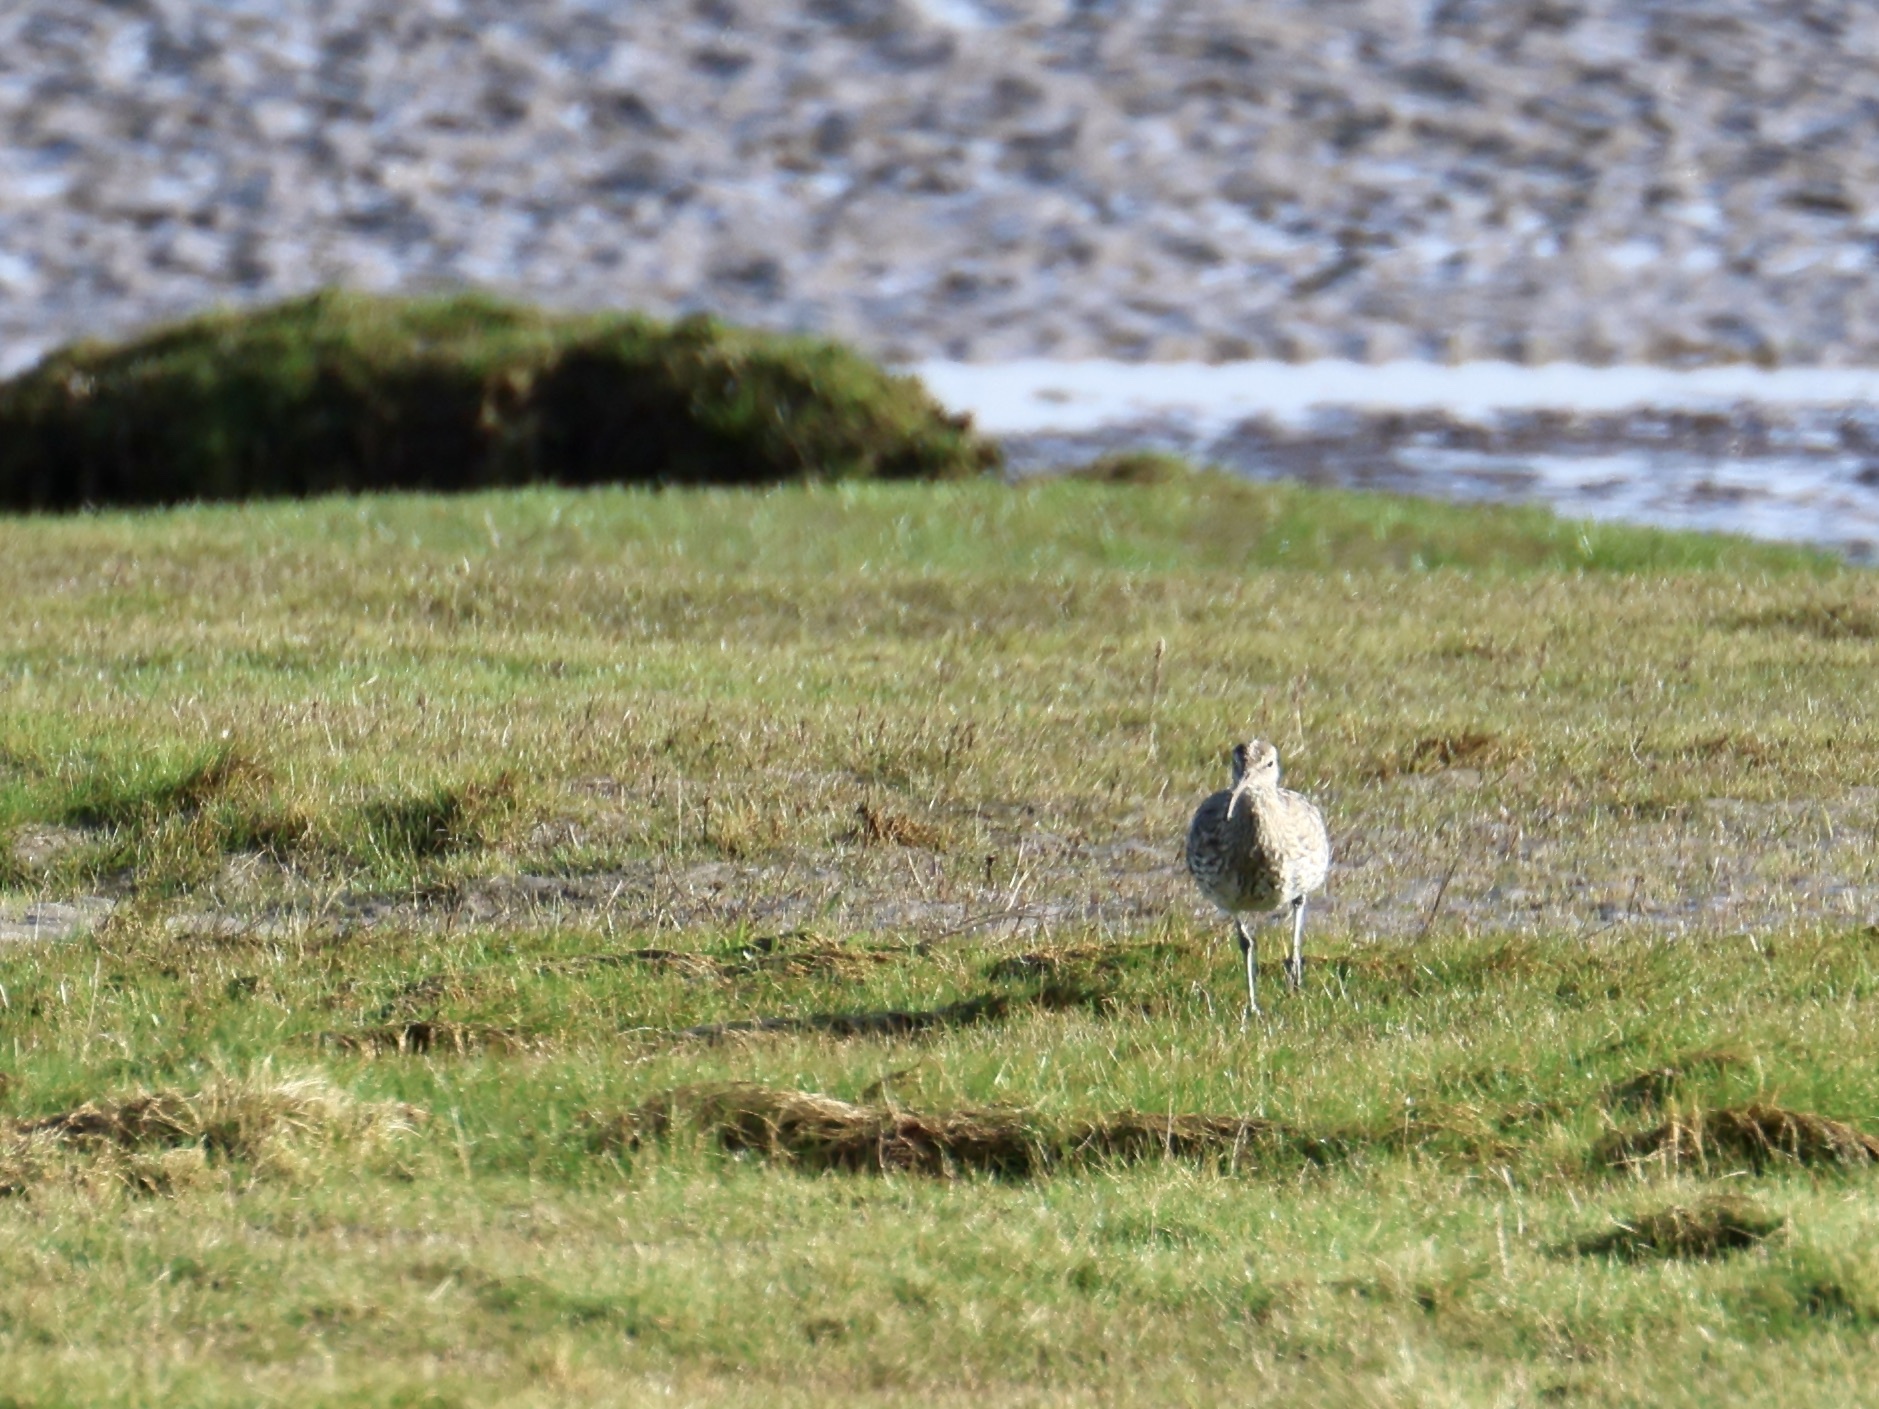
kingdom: Animalia
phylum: Chordata
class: Aves
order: Charadriiformes
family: Scolopacidae
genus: Numenius
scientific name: Numenius phaeopus
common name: Whimbrel
